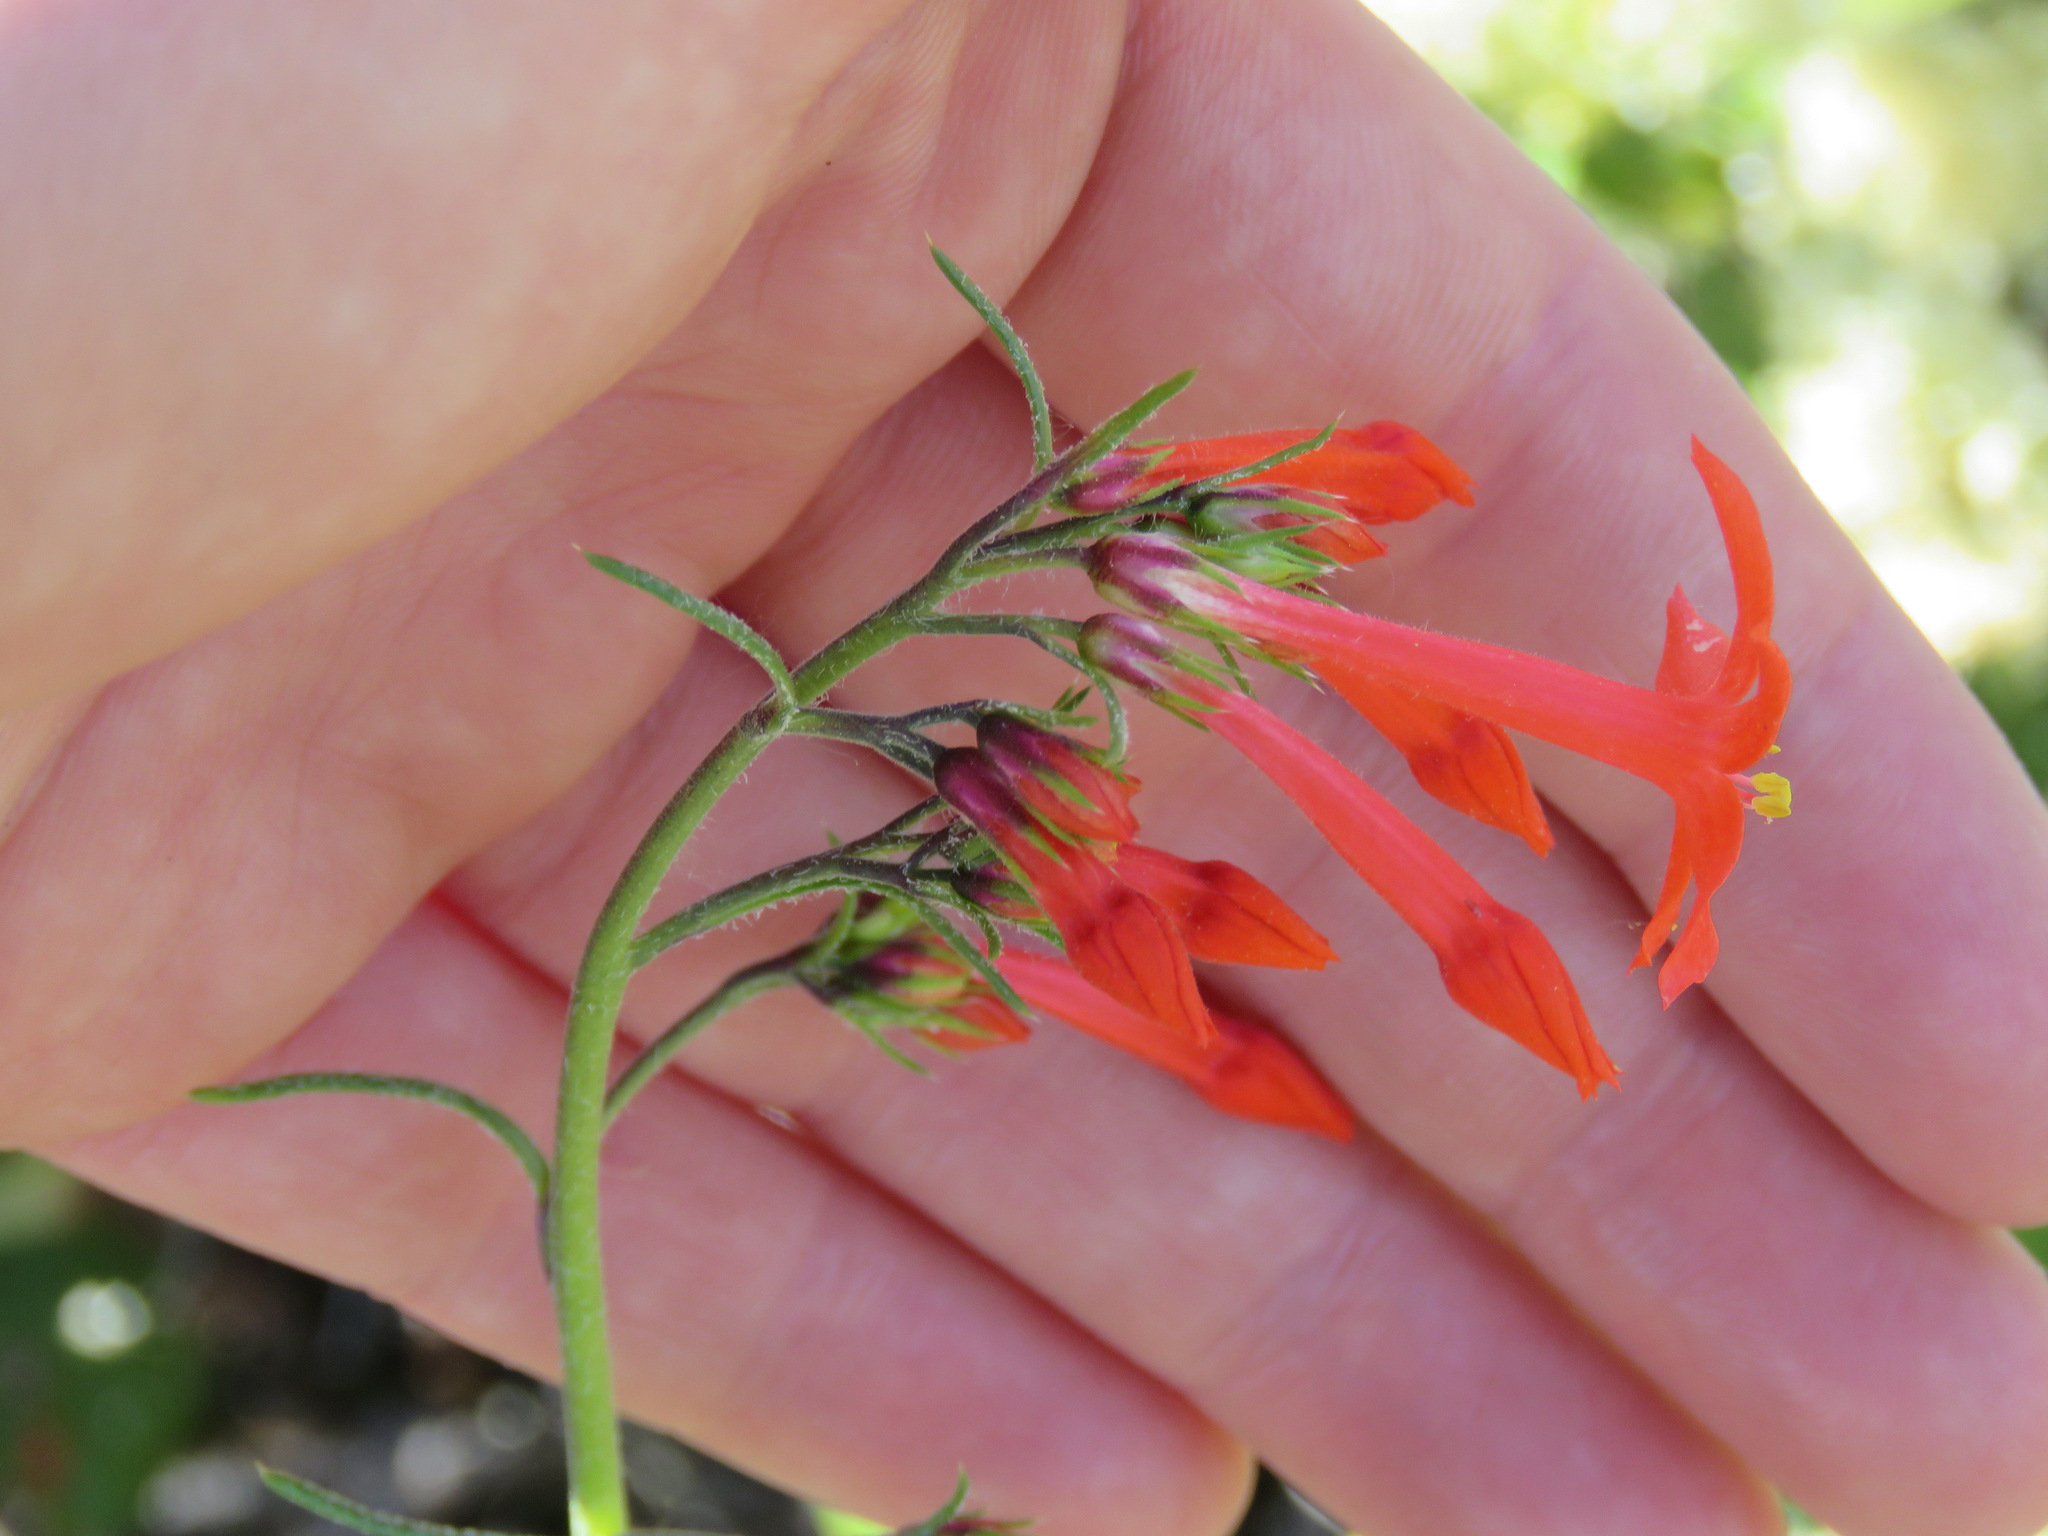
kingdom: Plantae
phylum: Tracheophyta
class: Magnoliopsida
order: Ericales
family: Polemoniaceae
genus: Ipomopsis
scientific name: Ipomopsis aggregata
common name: Scarlet gilia
